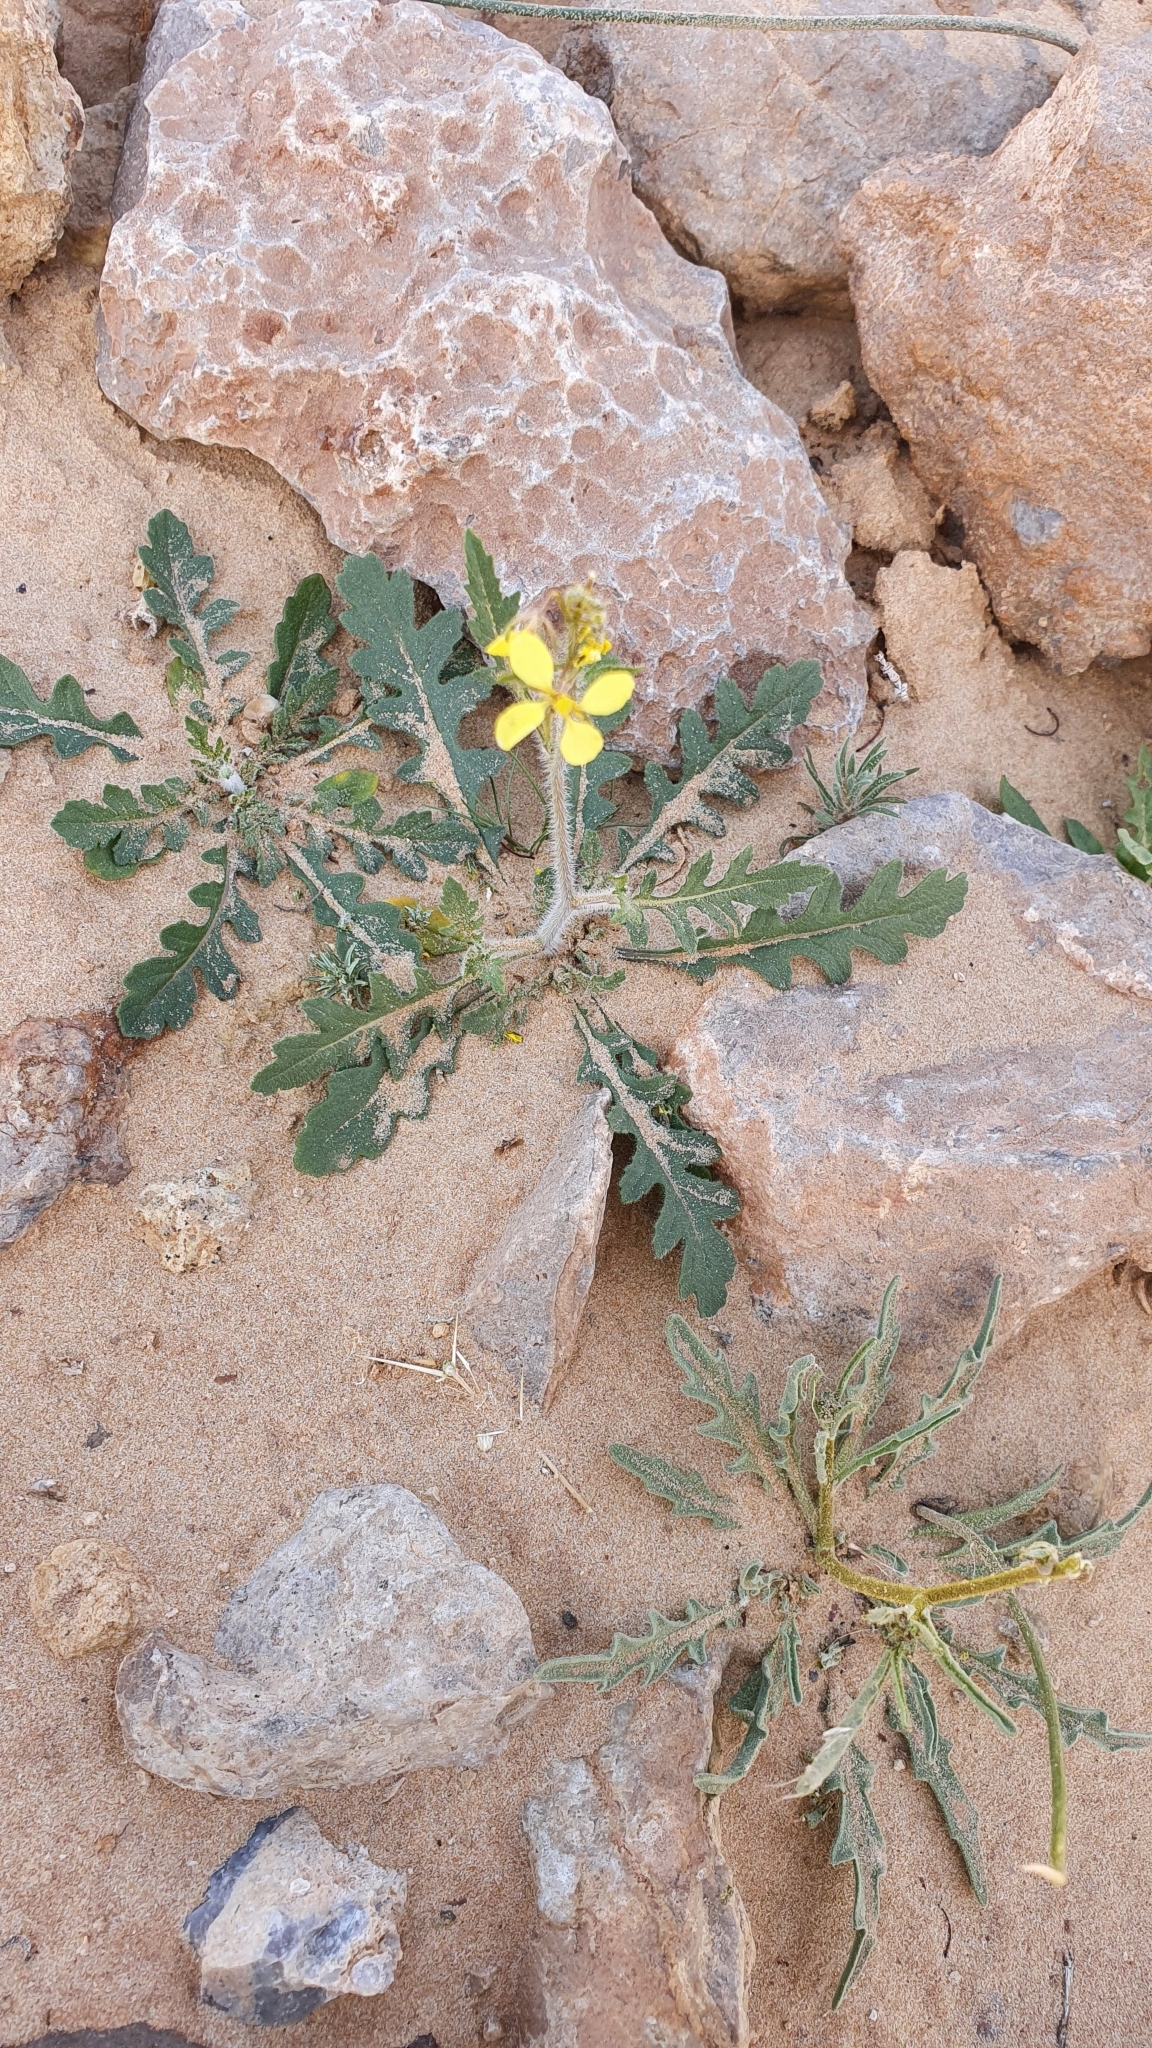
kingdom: Plantae
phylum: Tracheophyta
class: Magnoliopsida
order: Brassicales
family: Brassicaceae
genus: Diplotaxis
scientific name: Diplotaxis virgata
